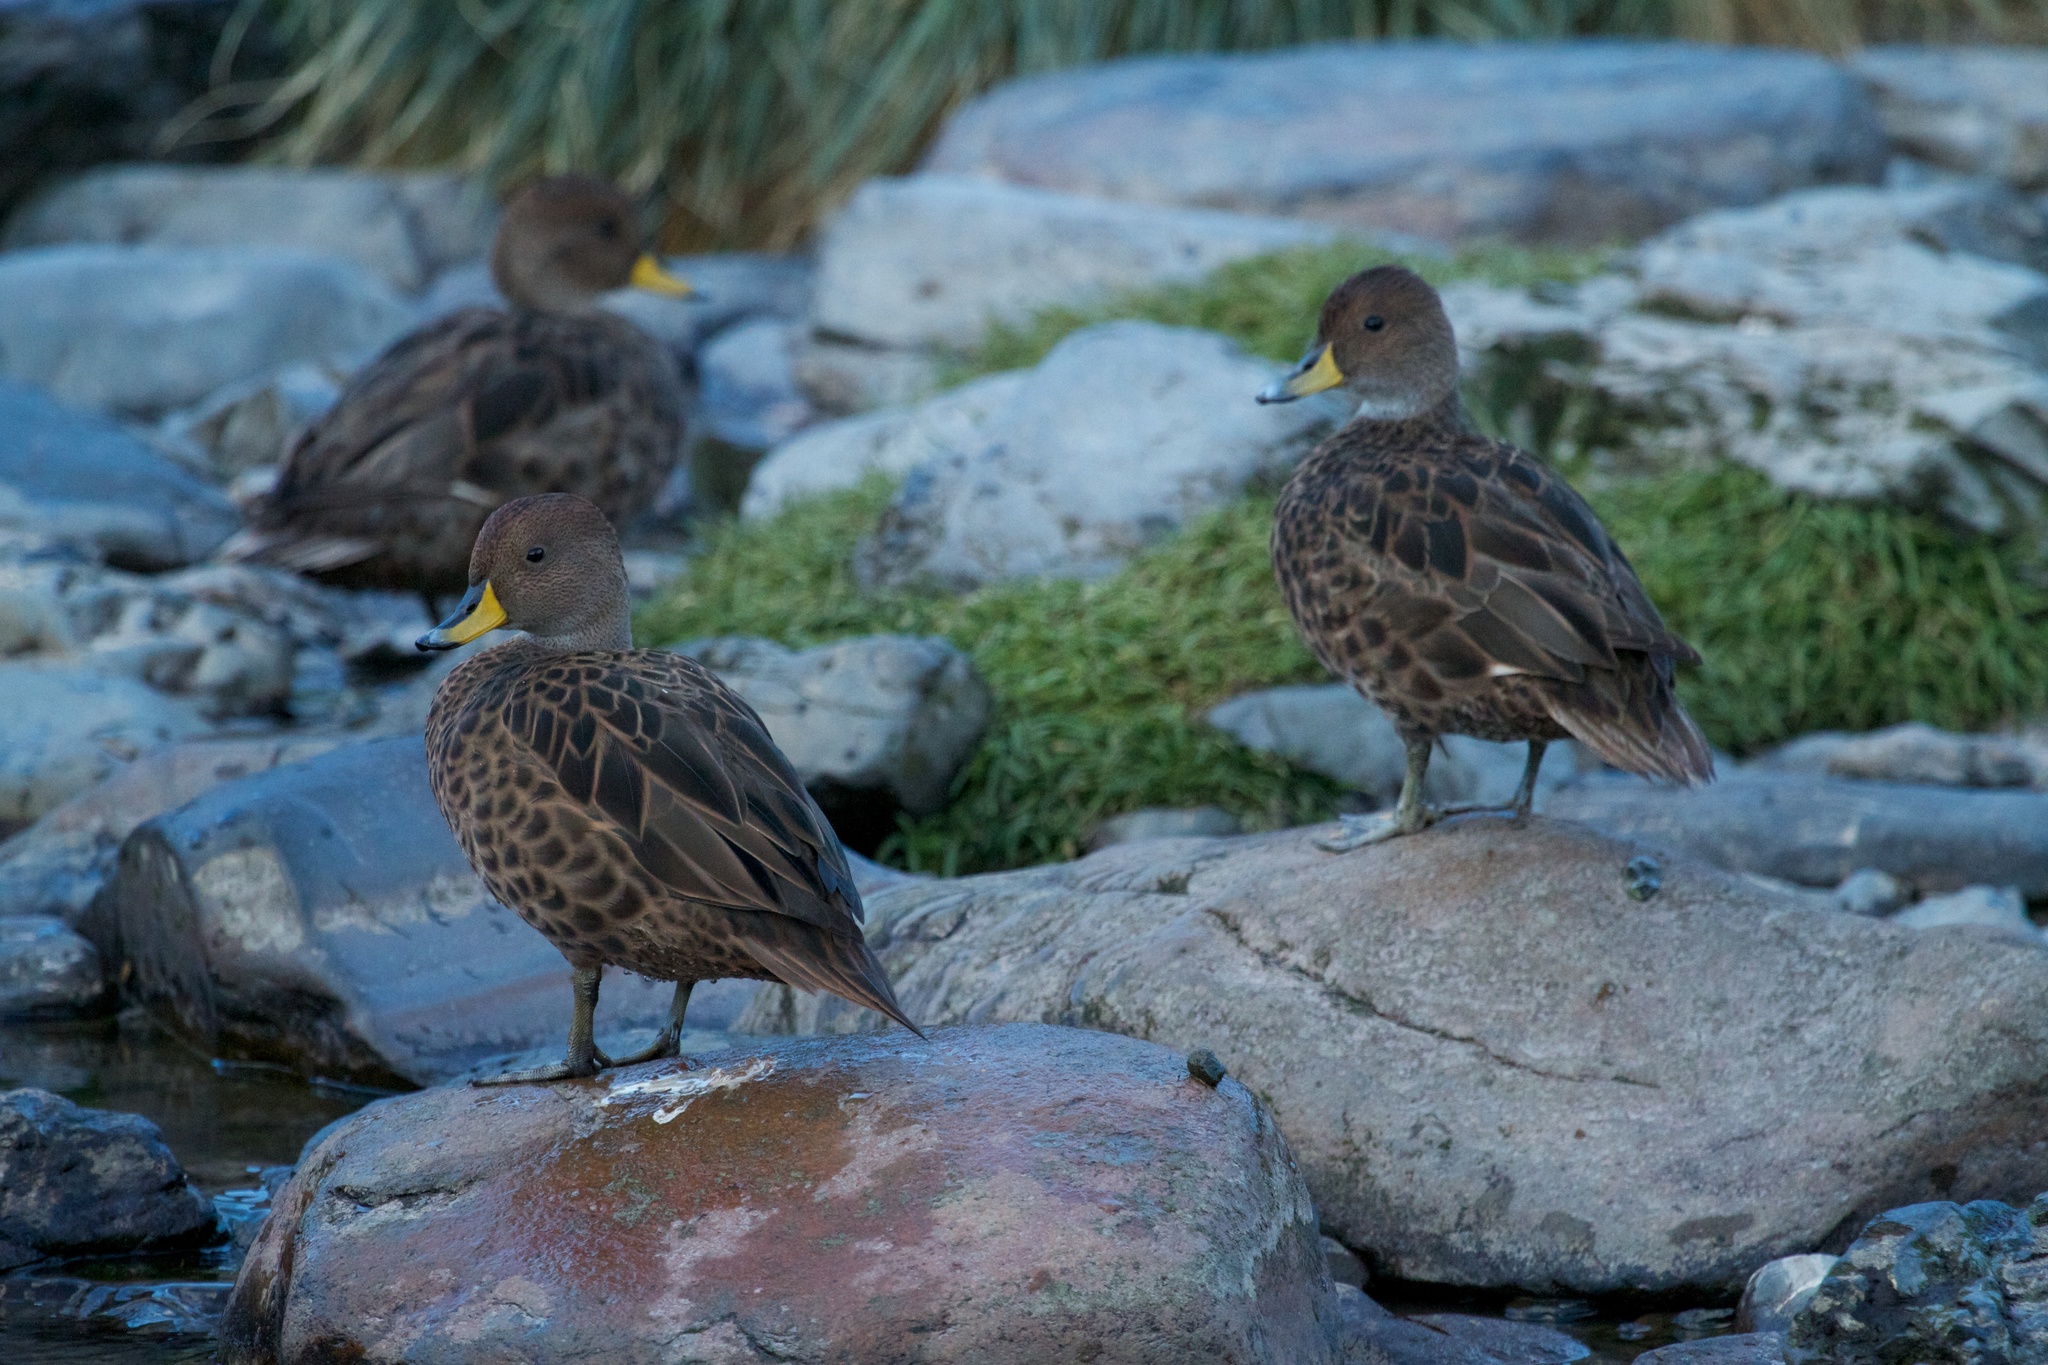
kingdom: Animalia
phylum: Chordata
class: Aves
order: Anseriformes
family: Anatidae
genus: Anas
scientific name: Anas georgica
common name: Yellow-billed pintail
